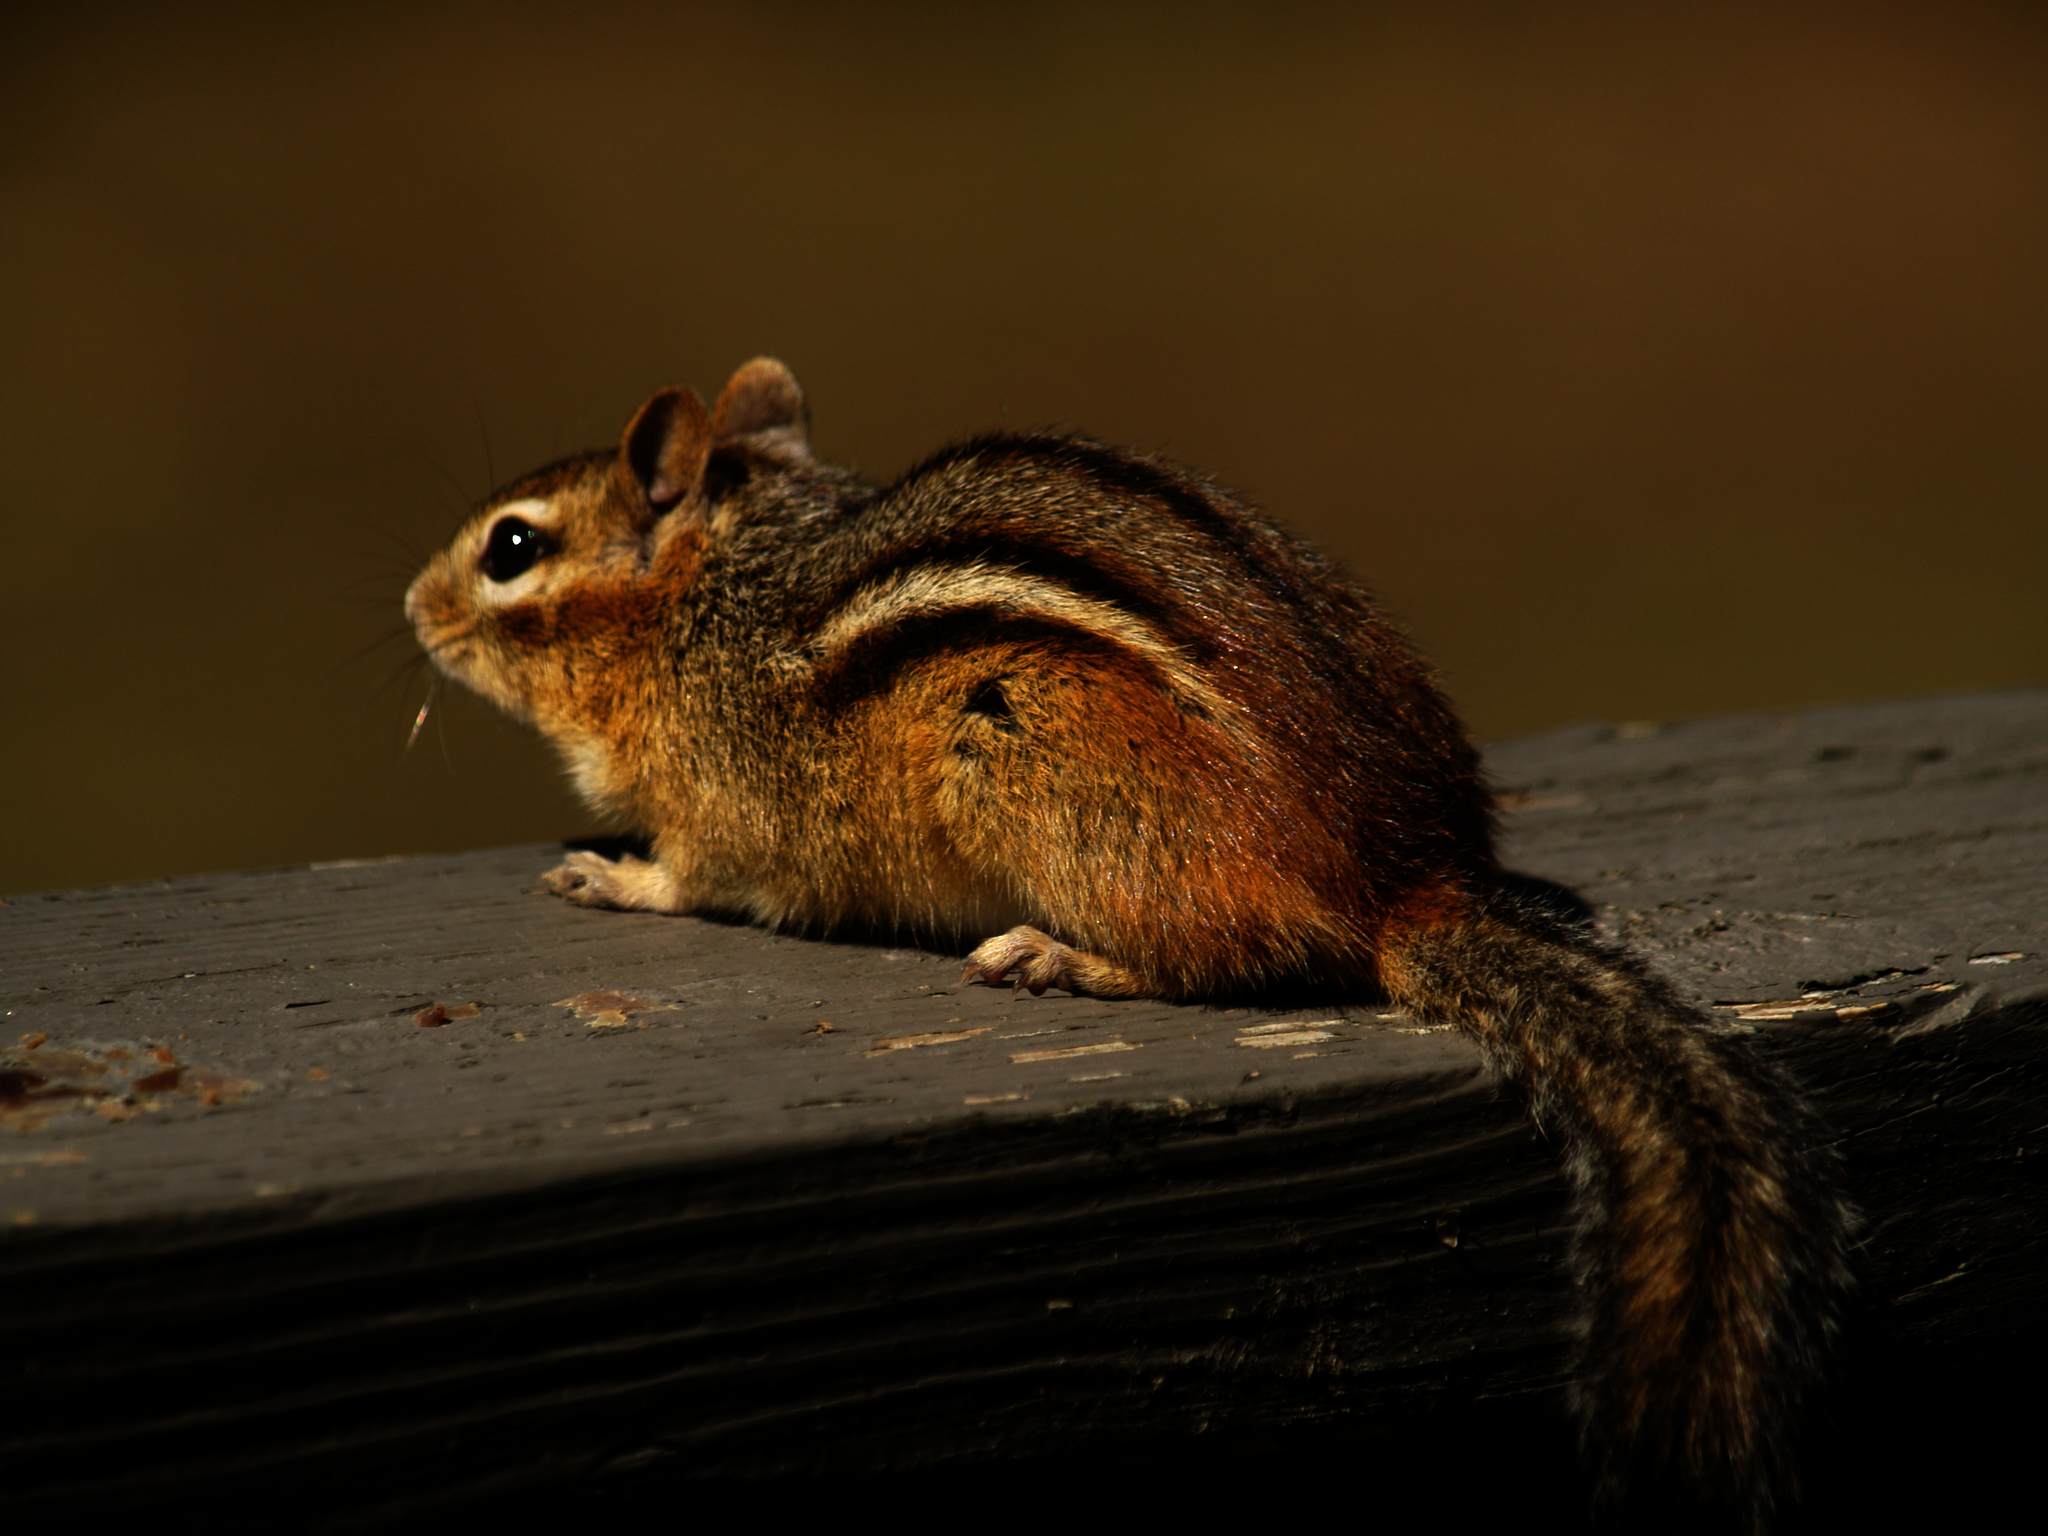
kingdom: Animalia
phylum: Chordata
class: Mammalia
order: Rodentia
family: Sciuridae
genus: Tamias
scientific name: Tamias striatus
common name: Eastern chipmunk
